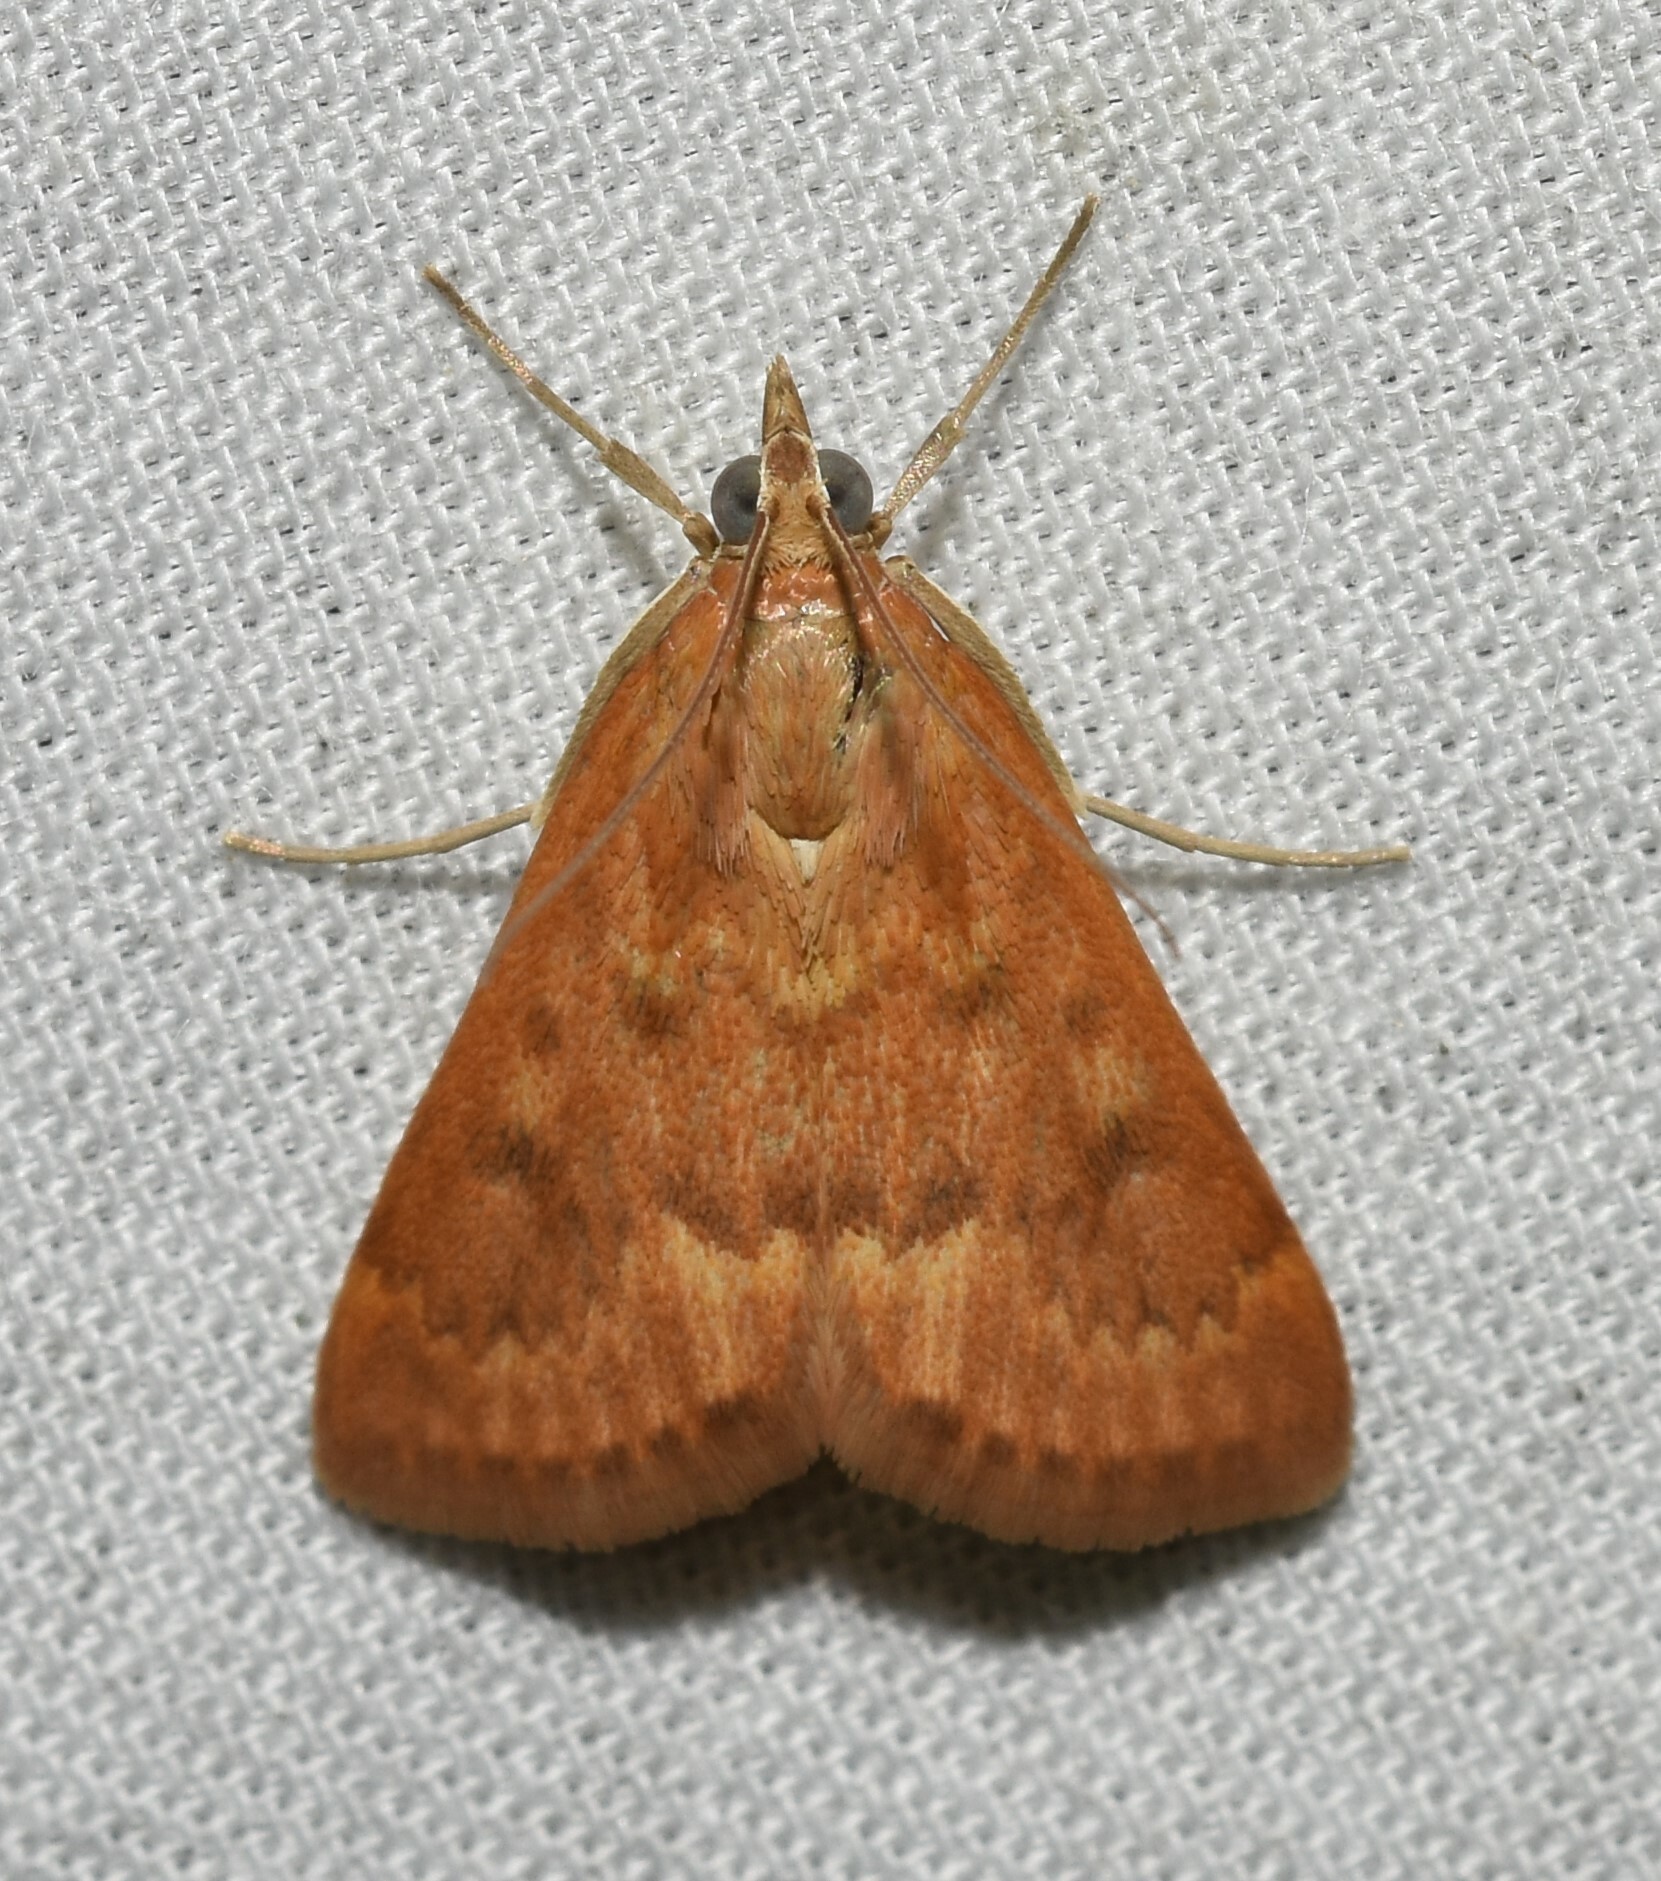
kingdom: Animalia
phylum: Arthropoda
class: Insecta
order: Lepidoptera
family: Crambidae
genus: Achyra
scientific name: Achyra rantalis
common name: Garden webworm
